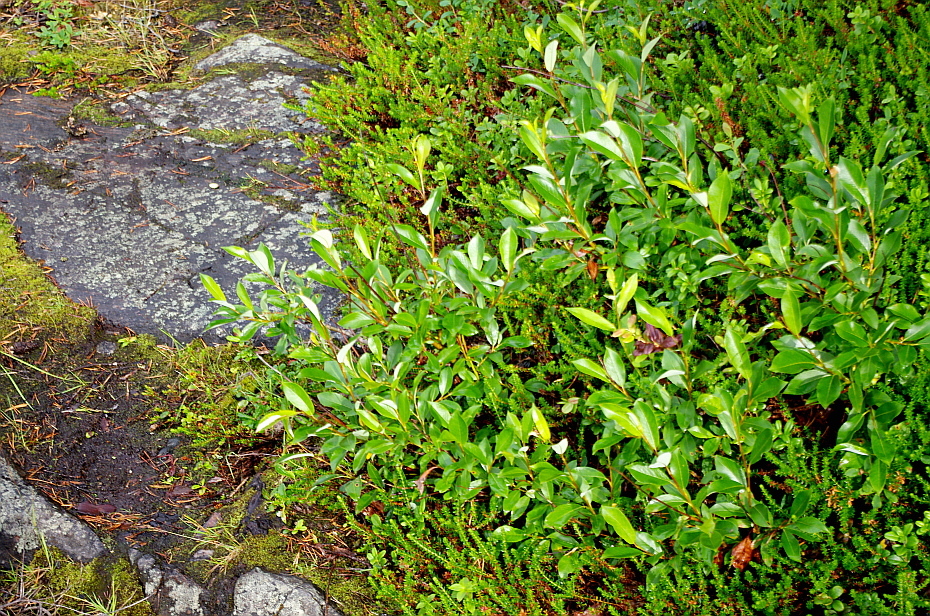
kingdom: Plantae
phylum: Tracheophyta
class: Magnoliopsida
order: Malpighiales
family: Salicaceae
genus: Salix
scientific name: Salix phylicifolia
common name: Tea-leaved willow
